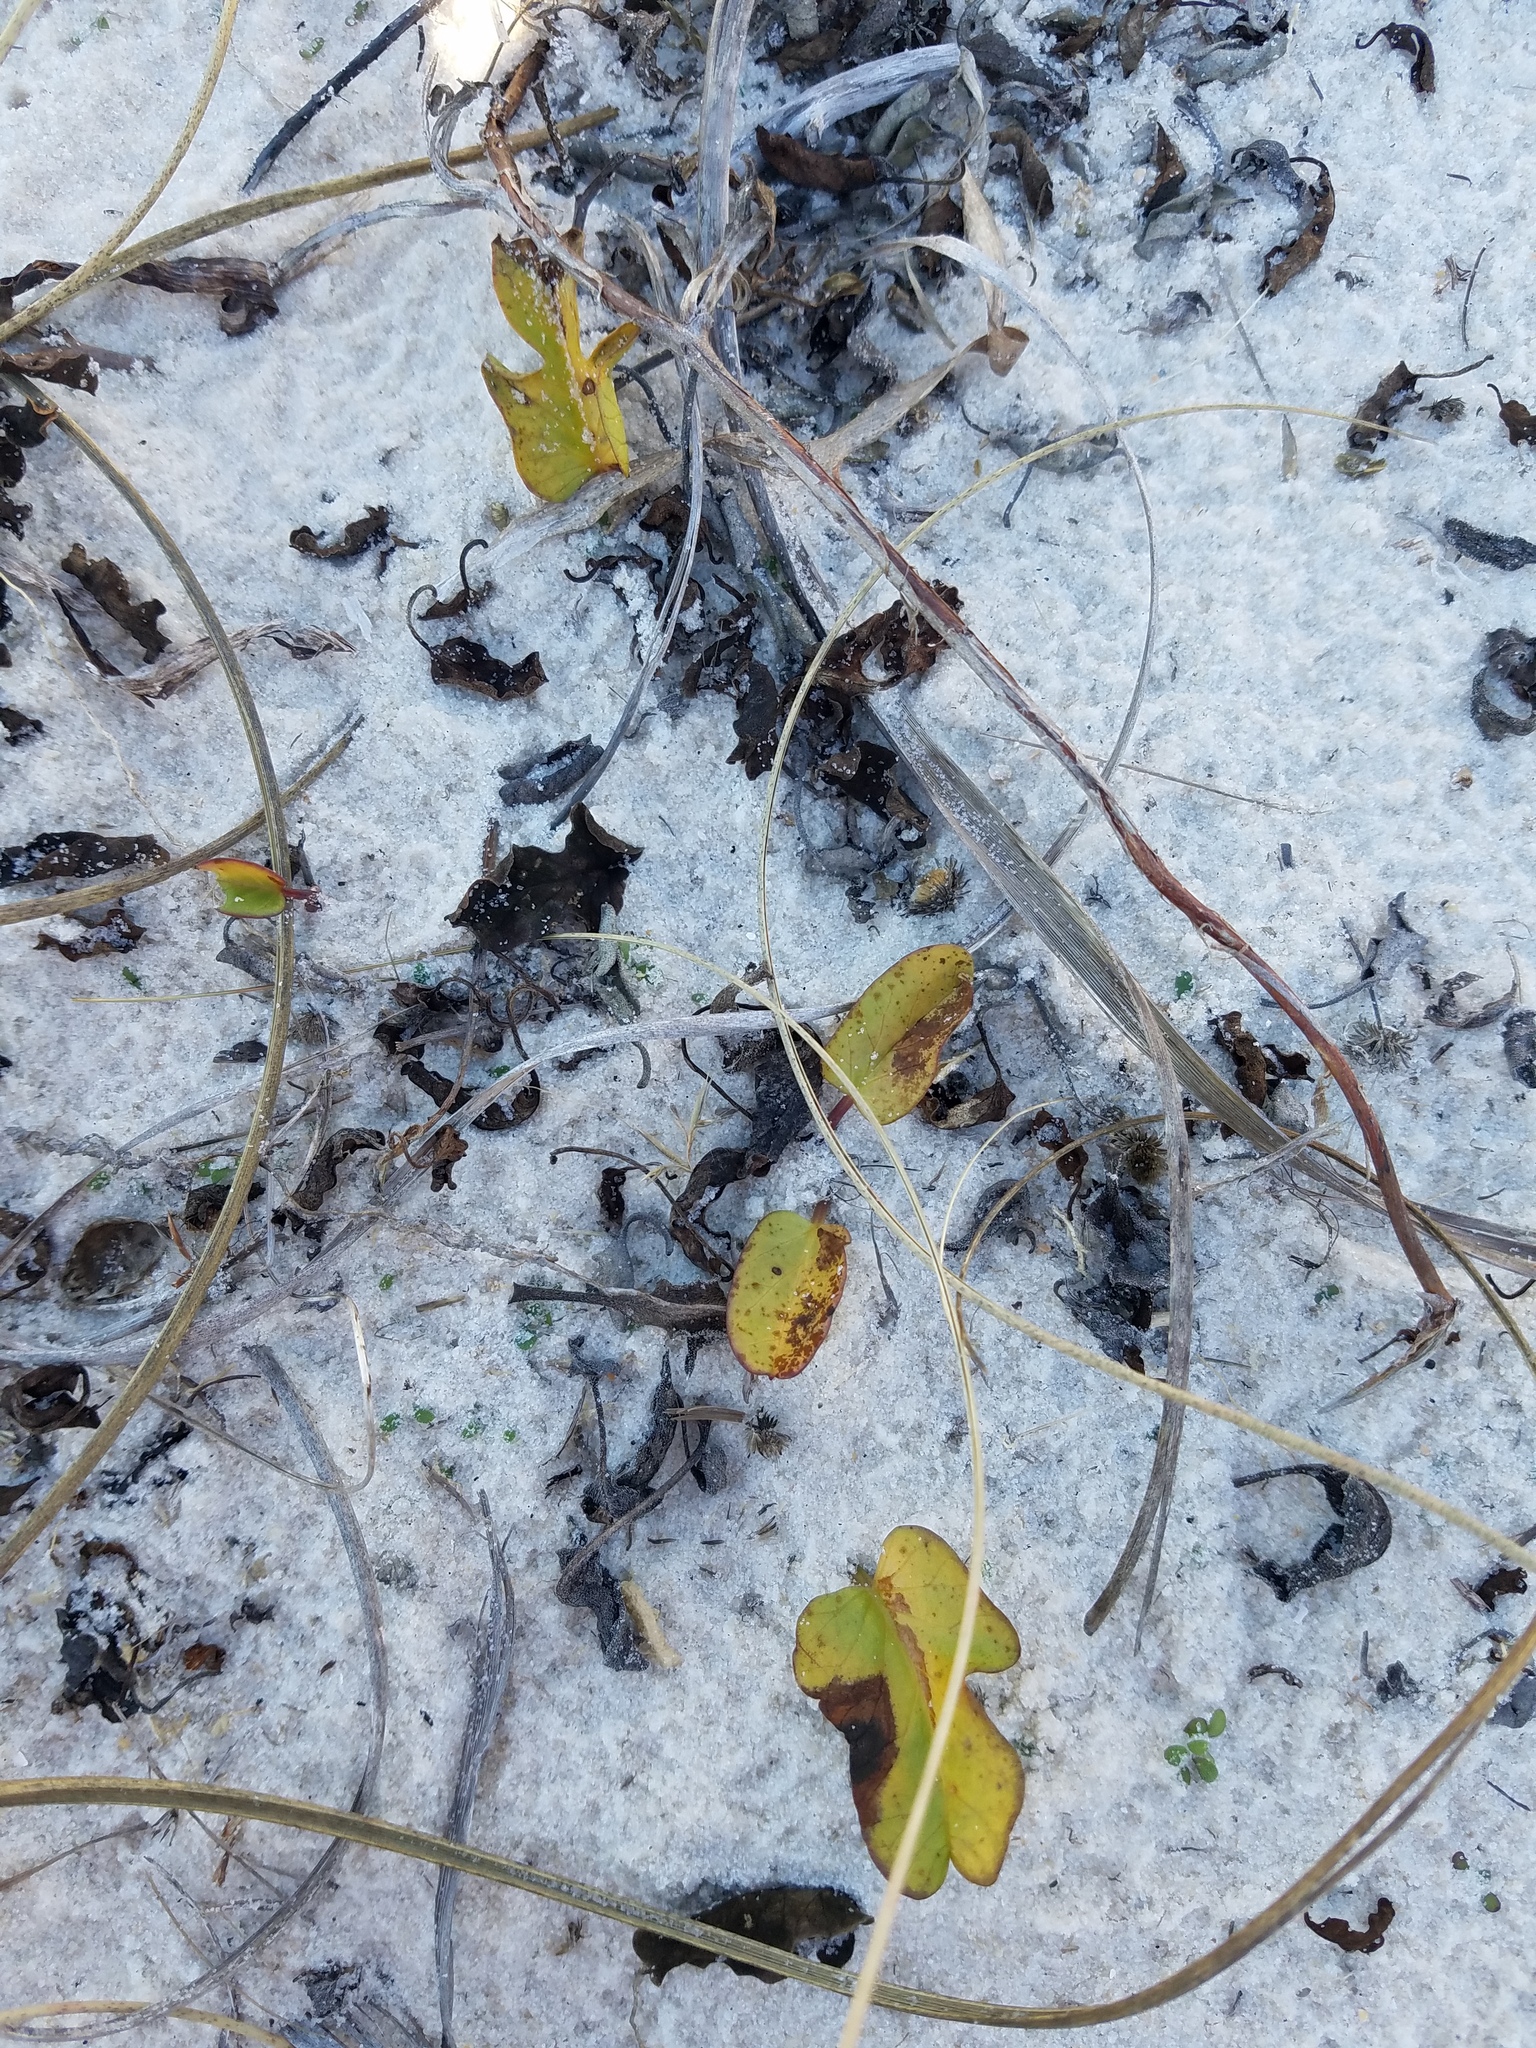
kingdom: Plantae
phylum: Tracheophyta
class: Magnoliopsida
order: Solanales
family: Convolvulaceae
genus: Ipomoea
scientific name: Ipomoea imperati
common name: Fiddle-leaf morning-glory
